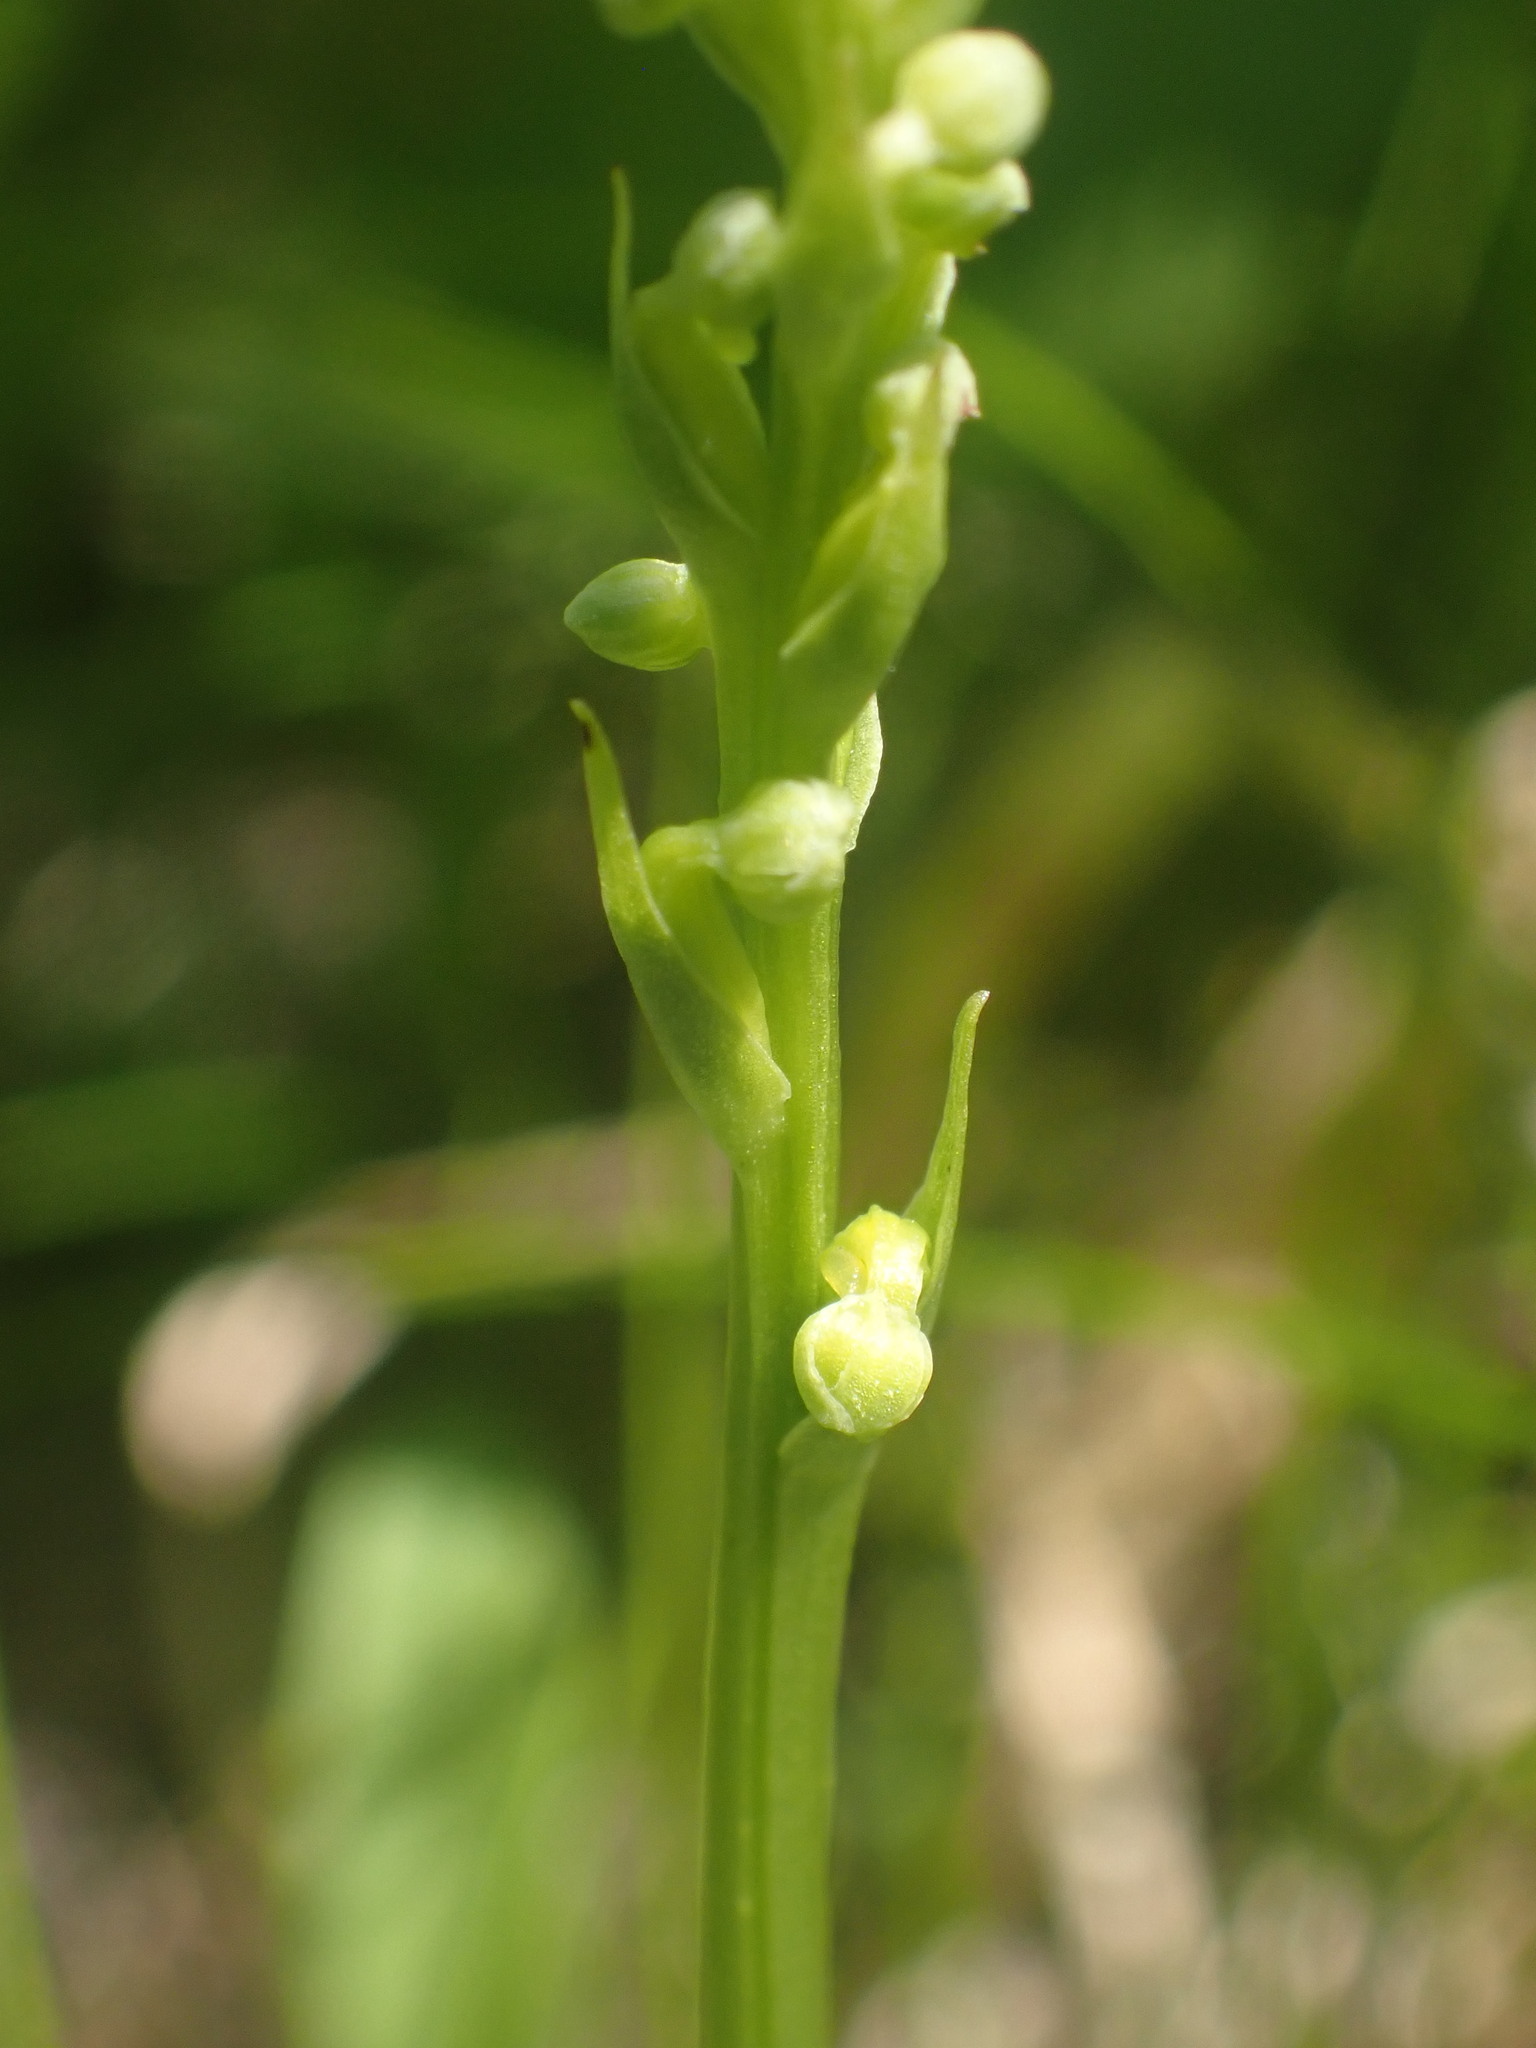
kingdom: Plantae
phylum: Tracheophyta
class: Liliopsida
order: Asparagales
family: Orchidaceae
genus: Platanthera
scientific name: Platanthera chorisiana
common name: Chamisso's orchid
